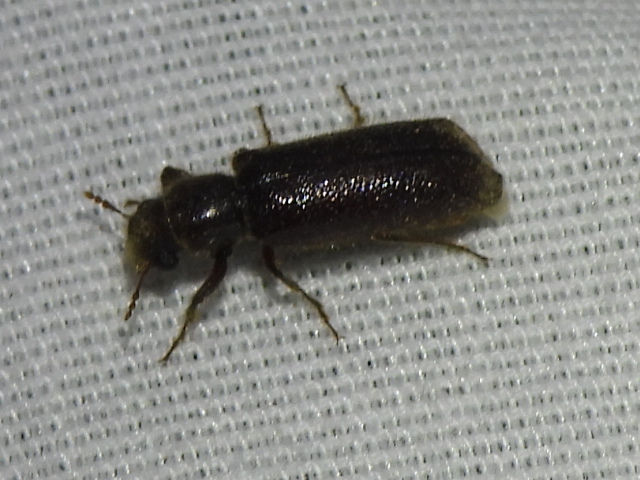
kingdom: Animalia
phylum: Arthropoda
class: Insecta
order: Coleoptera
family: Bostrichidae
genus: Melalgus
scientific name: Melalgus plicatus
